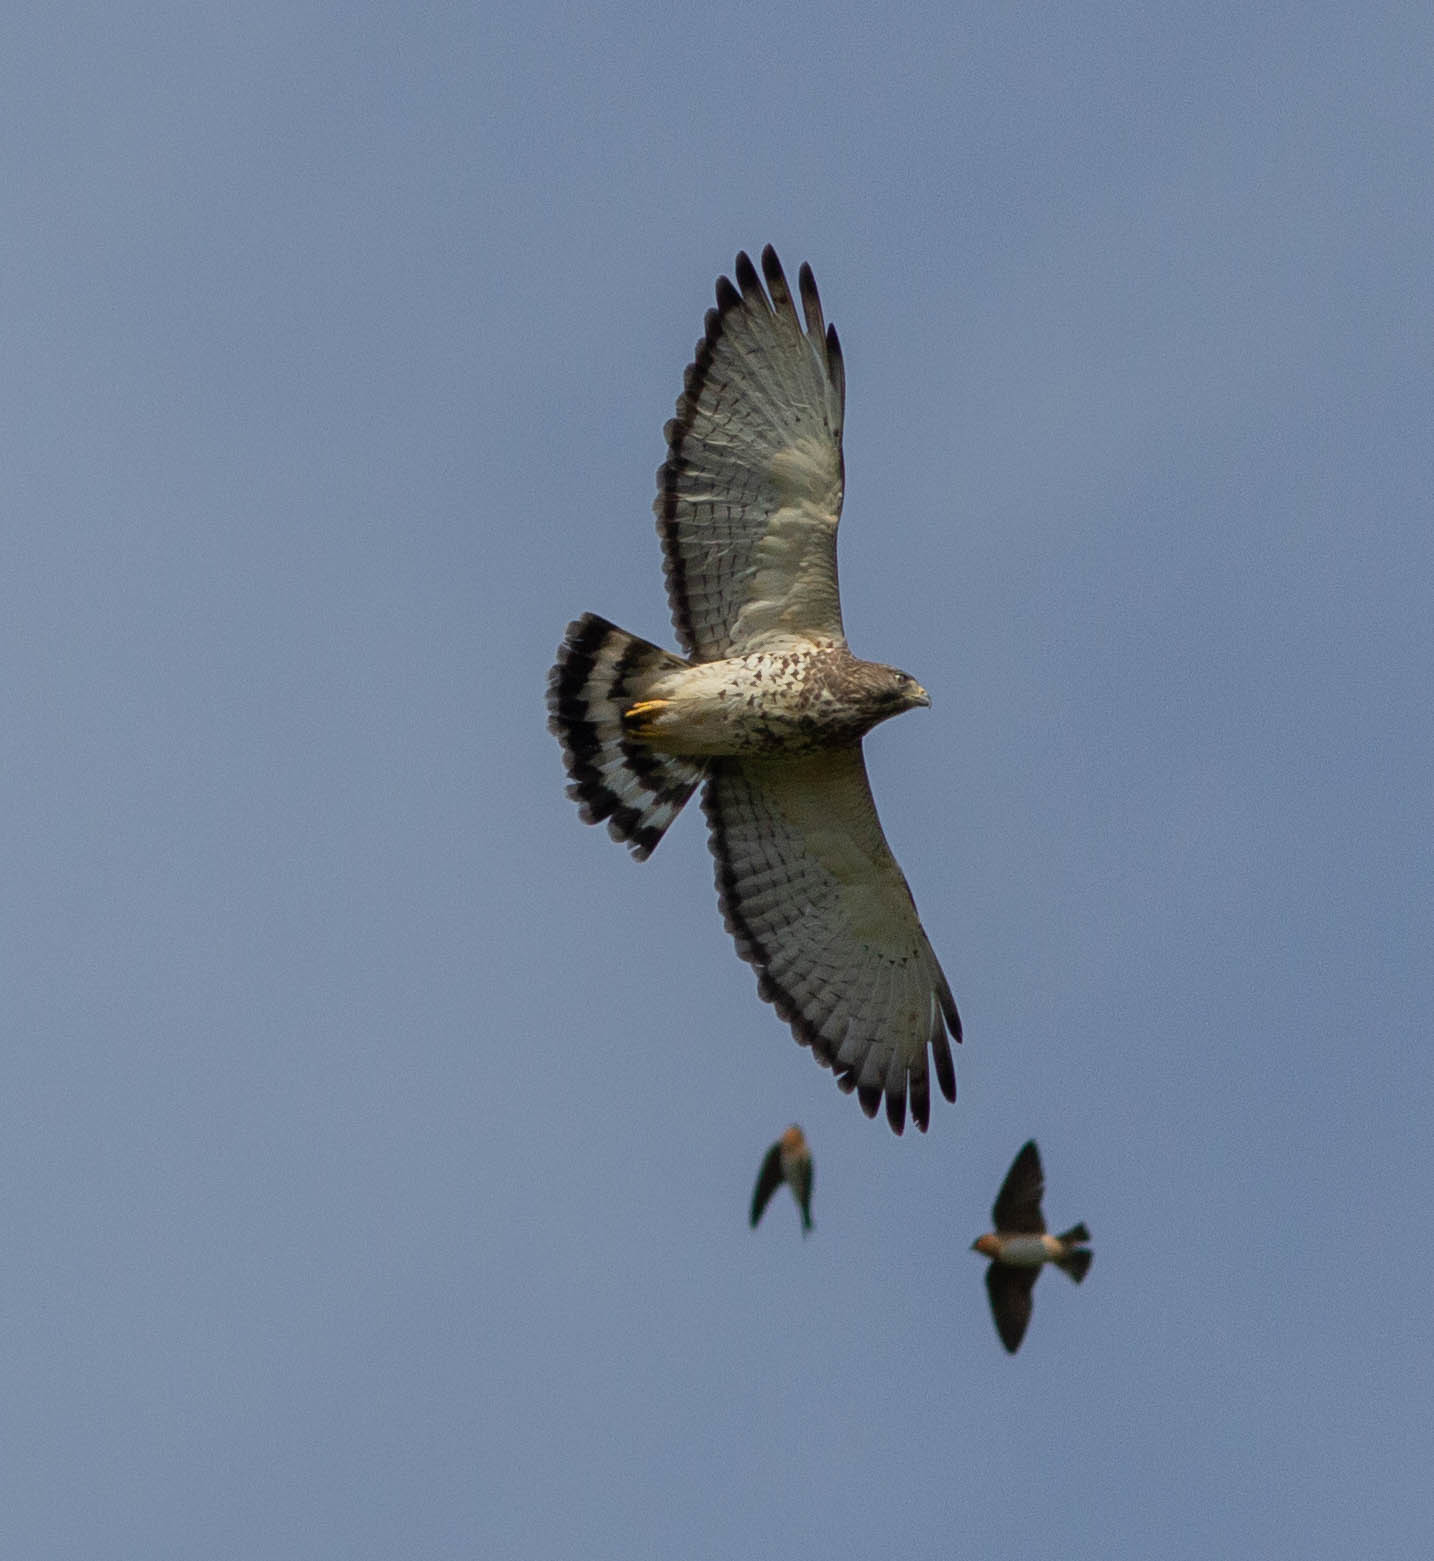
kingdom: Animalia
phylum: Chordata
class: Aves
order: Accipitriformes
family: Accipitridae
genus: Buteo
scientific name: Buteo platypterus
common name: Broad-winged hawk
